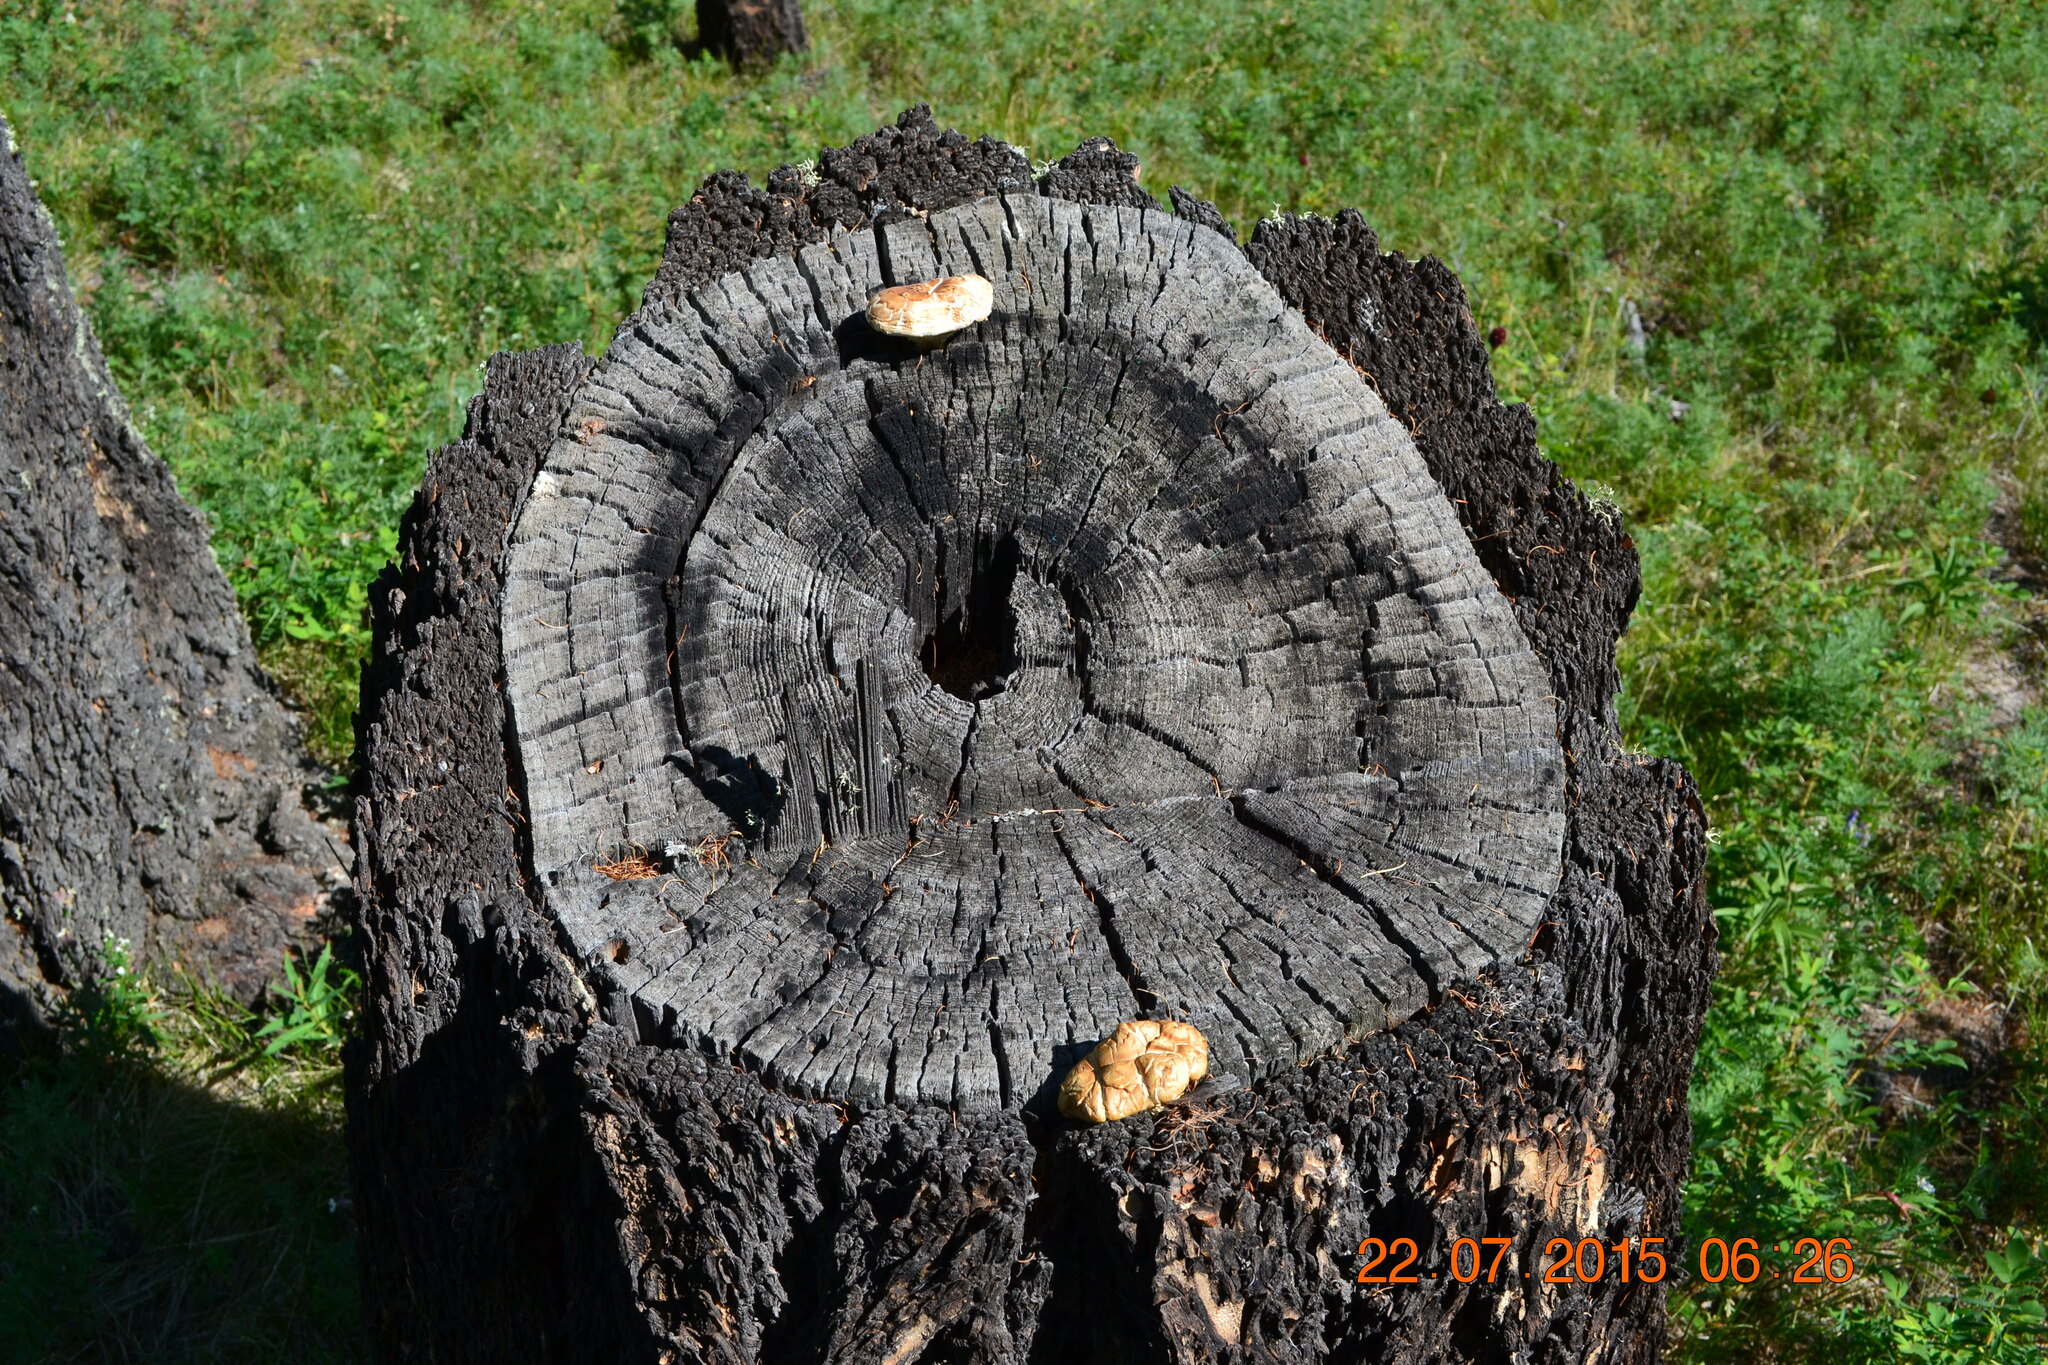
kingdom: Fungi
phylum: Basidiomycota
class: Agaricomycetes
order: Gloeophyllales
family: Gloeophyllaceae
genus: Neolentinus
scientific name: Neolentinus lepideus
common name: Scaly sawgill
